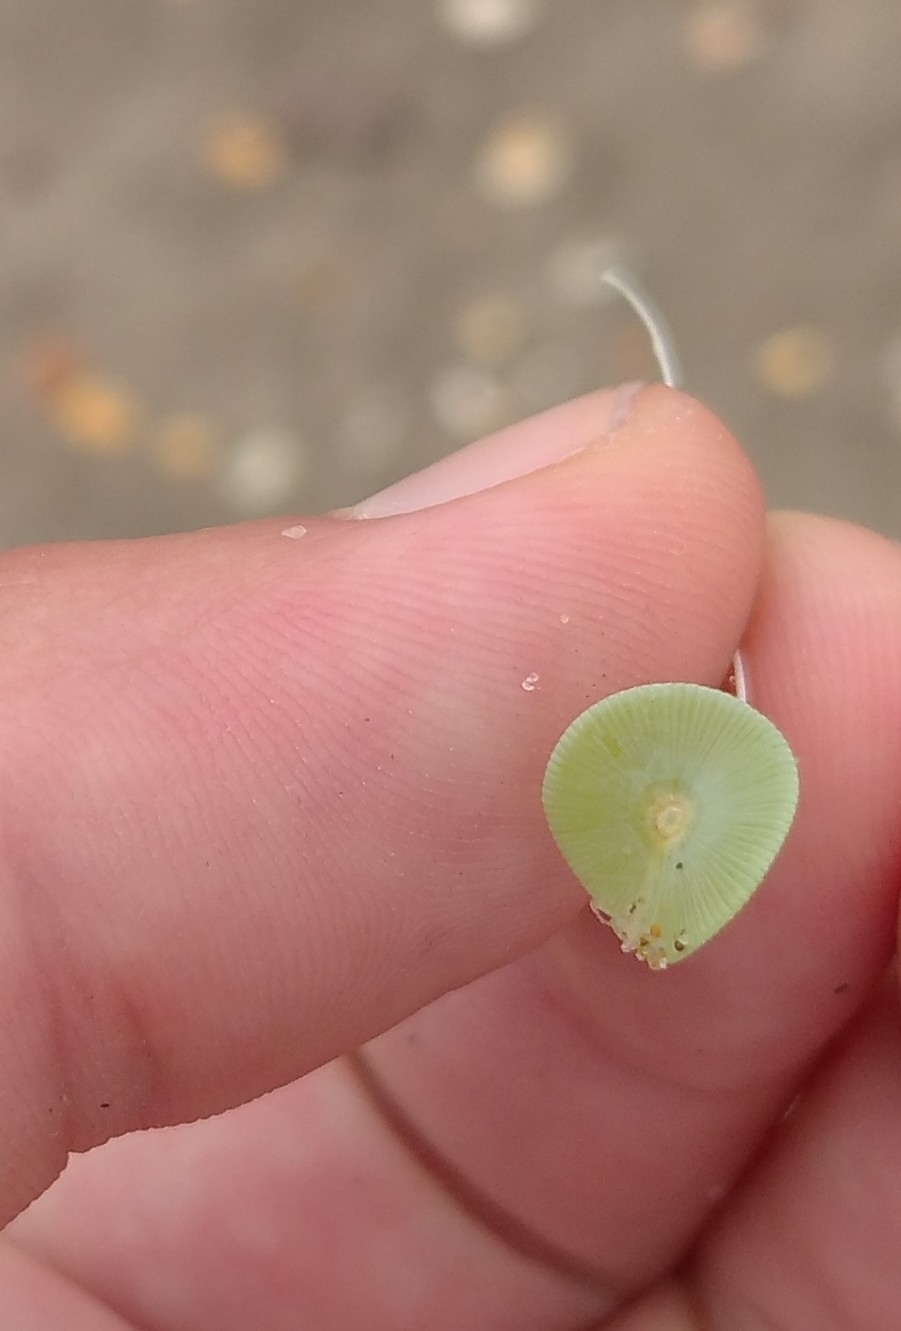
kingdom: Plantae
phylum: Chlorophyta
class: Ulvophyceae
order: Dasycladales
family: Polyphysaceae
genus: Acetabularia
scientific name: Acetabularia acetabulum
